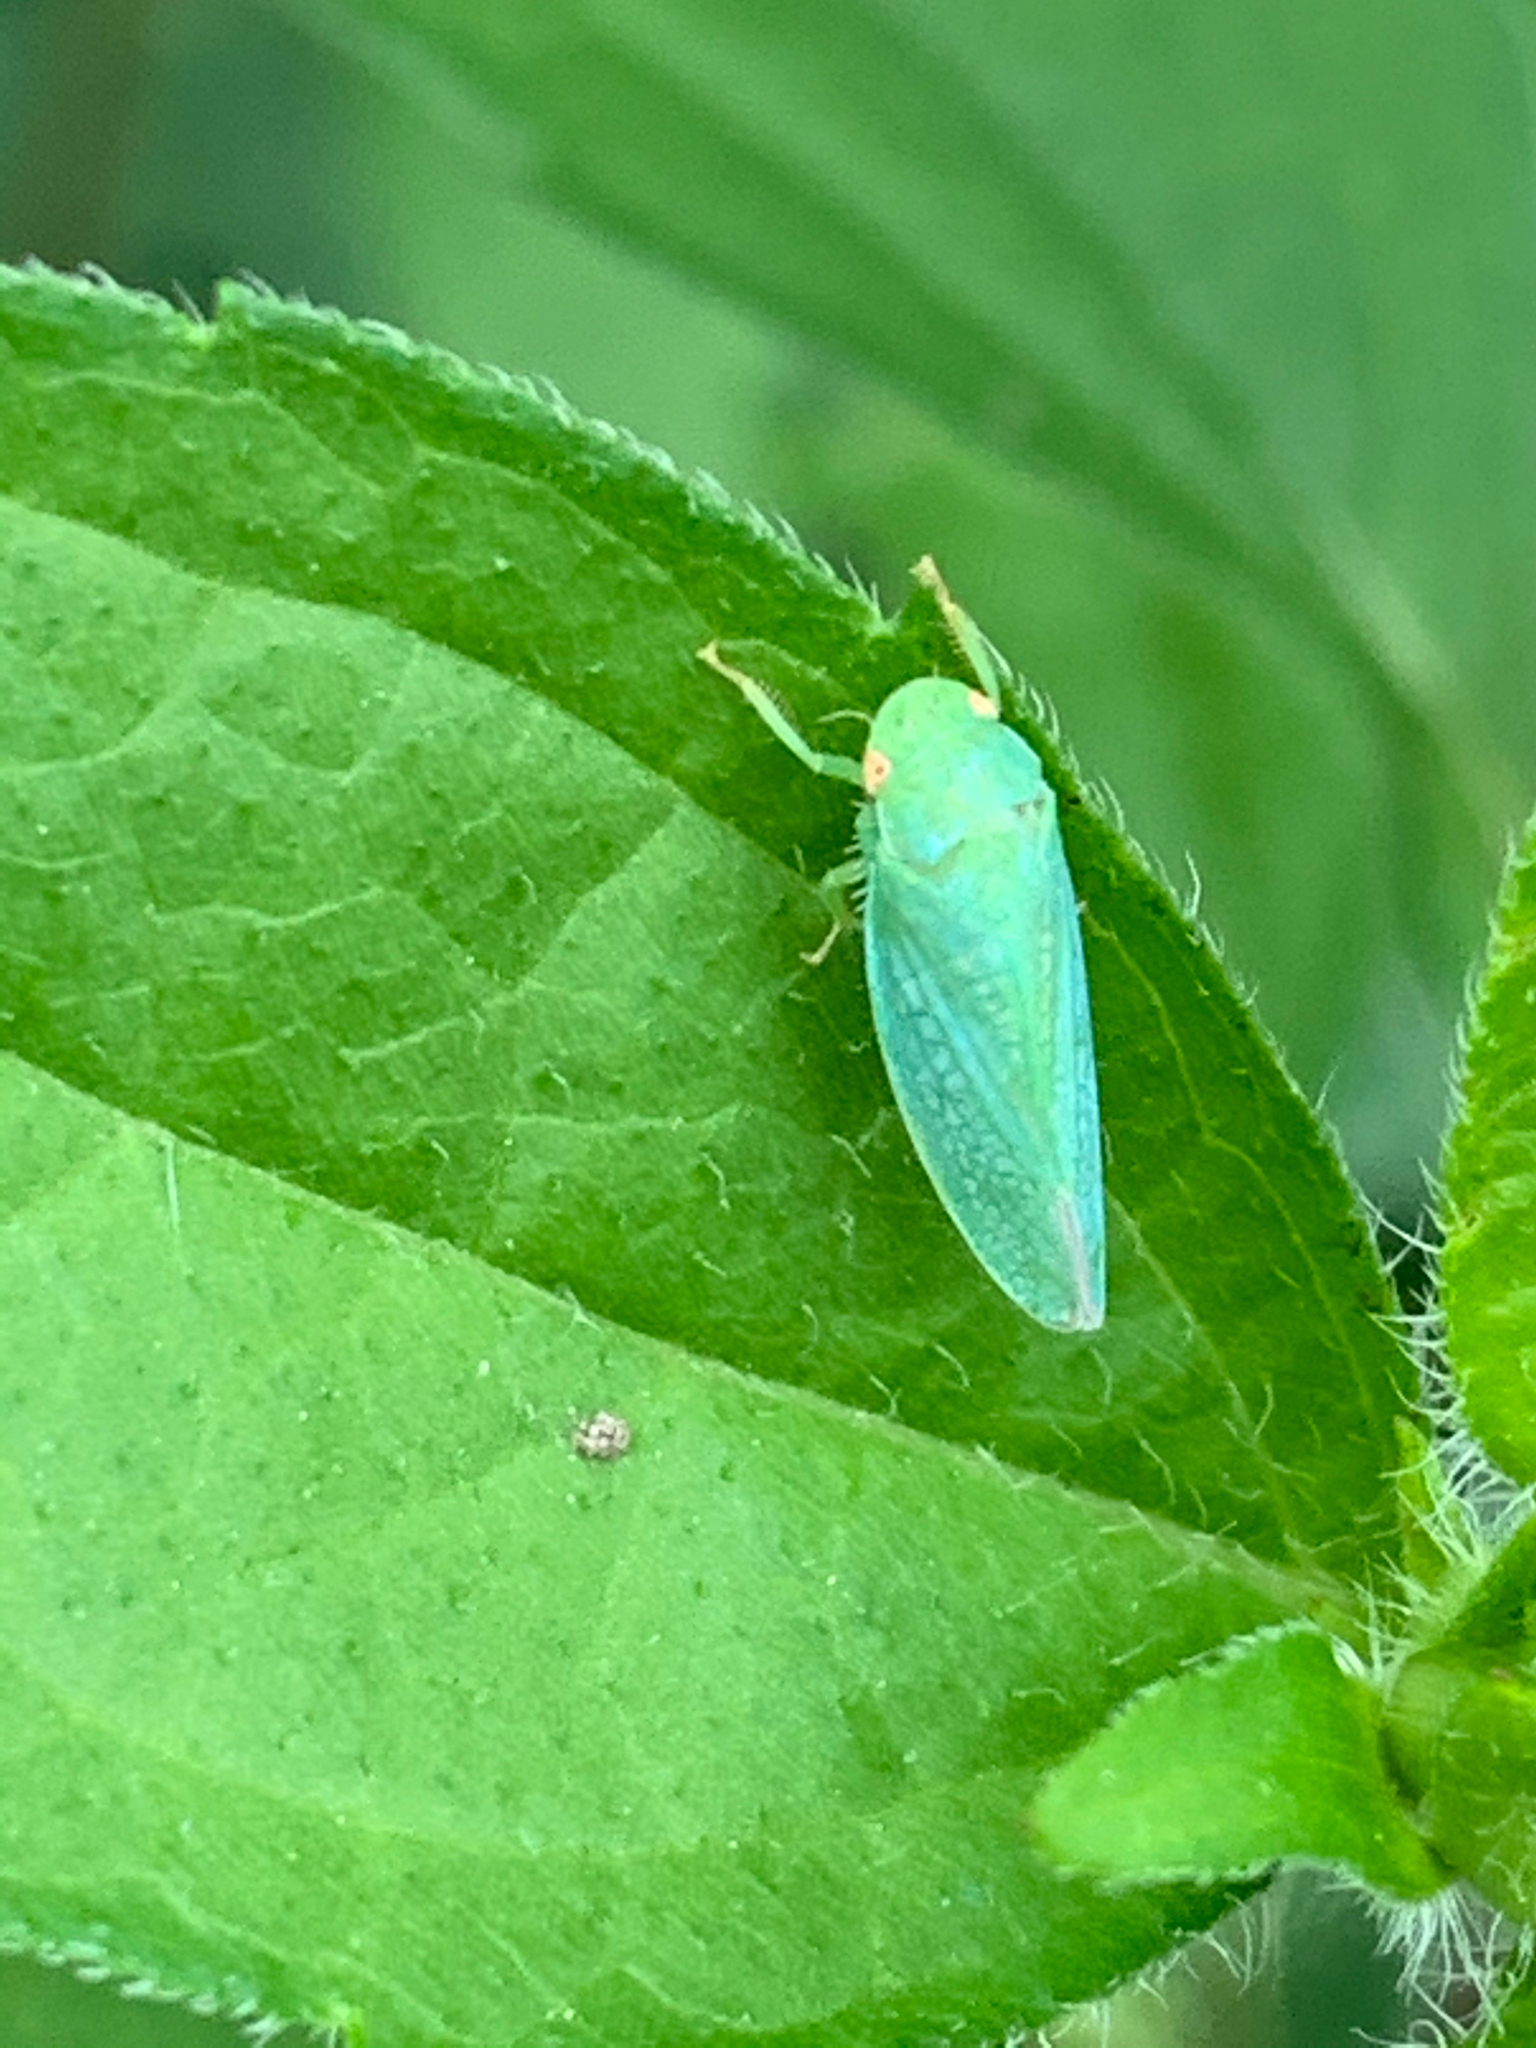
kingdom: Animalia
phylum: Arthropoda
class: Insecta
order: Hemiptera
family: Cicadellidae
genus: Gyponana
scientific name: Gyponana
